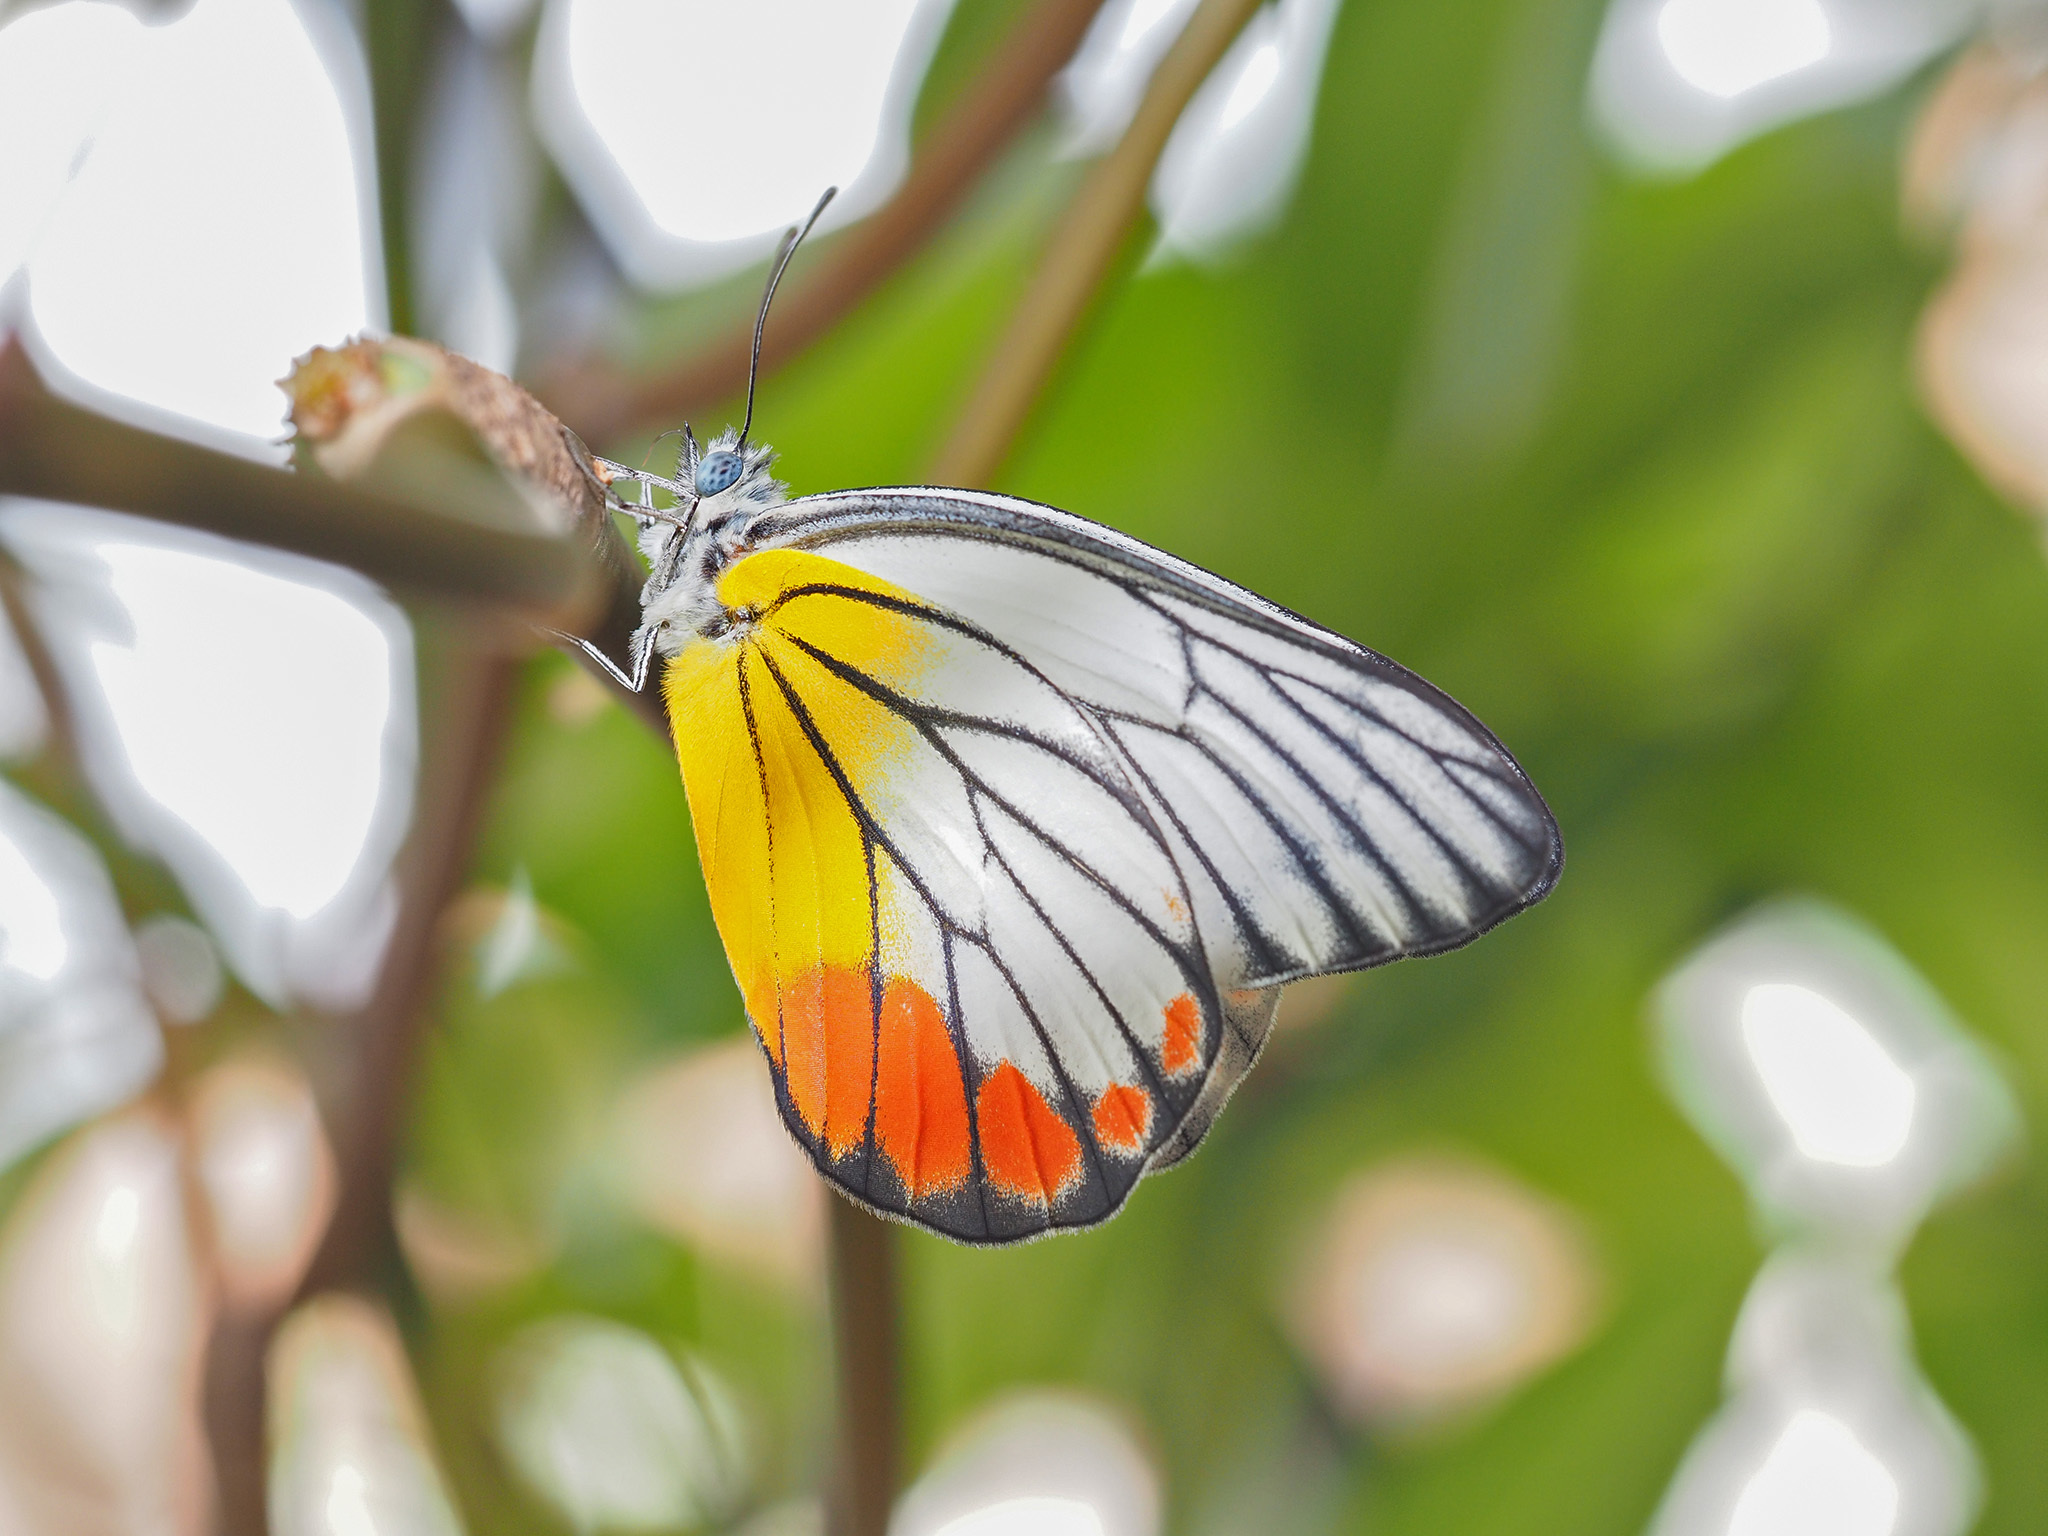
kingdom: Animalia
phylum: Arthropoda
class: Insecta
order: Lepidoptera
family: Pieridae
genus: Delias
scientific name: Delias hyparete
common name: Painted jezebel
